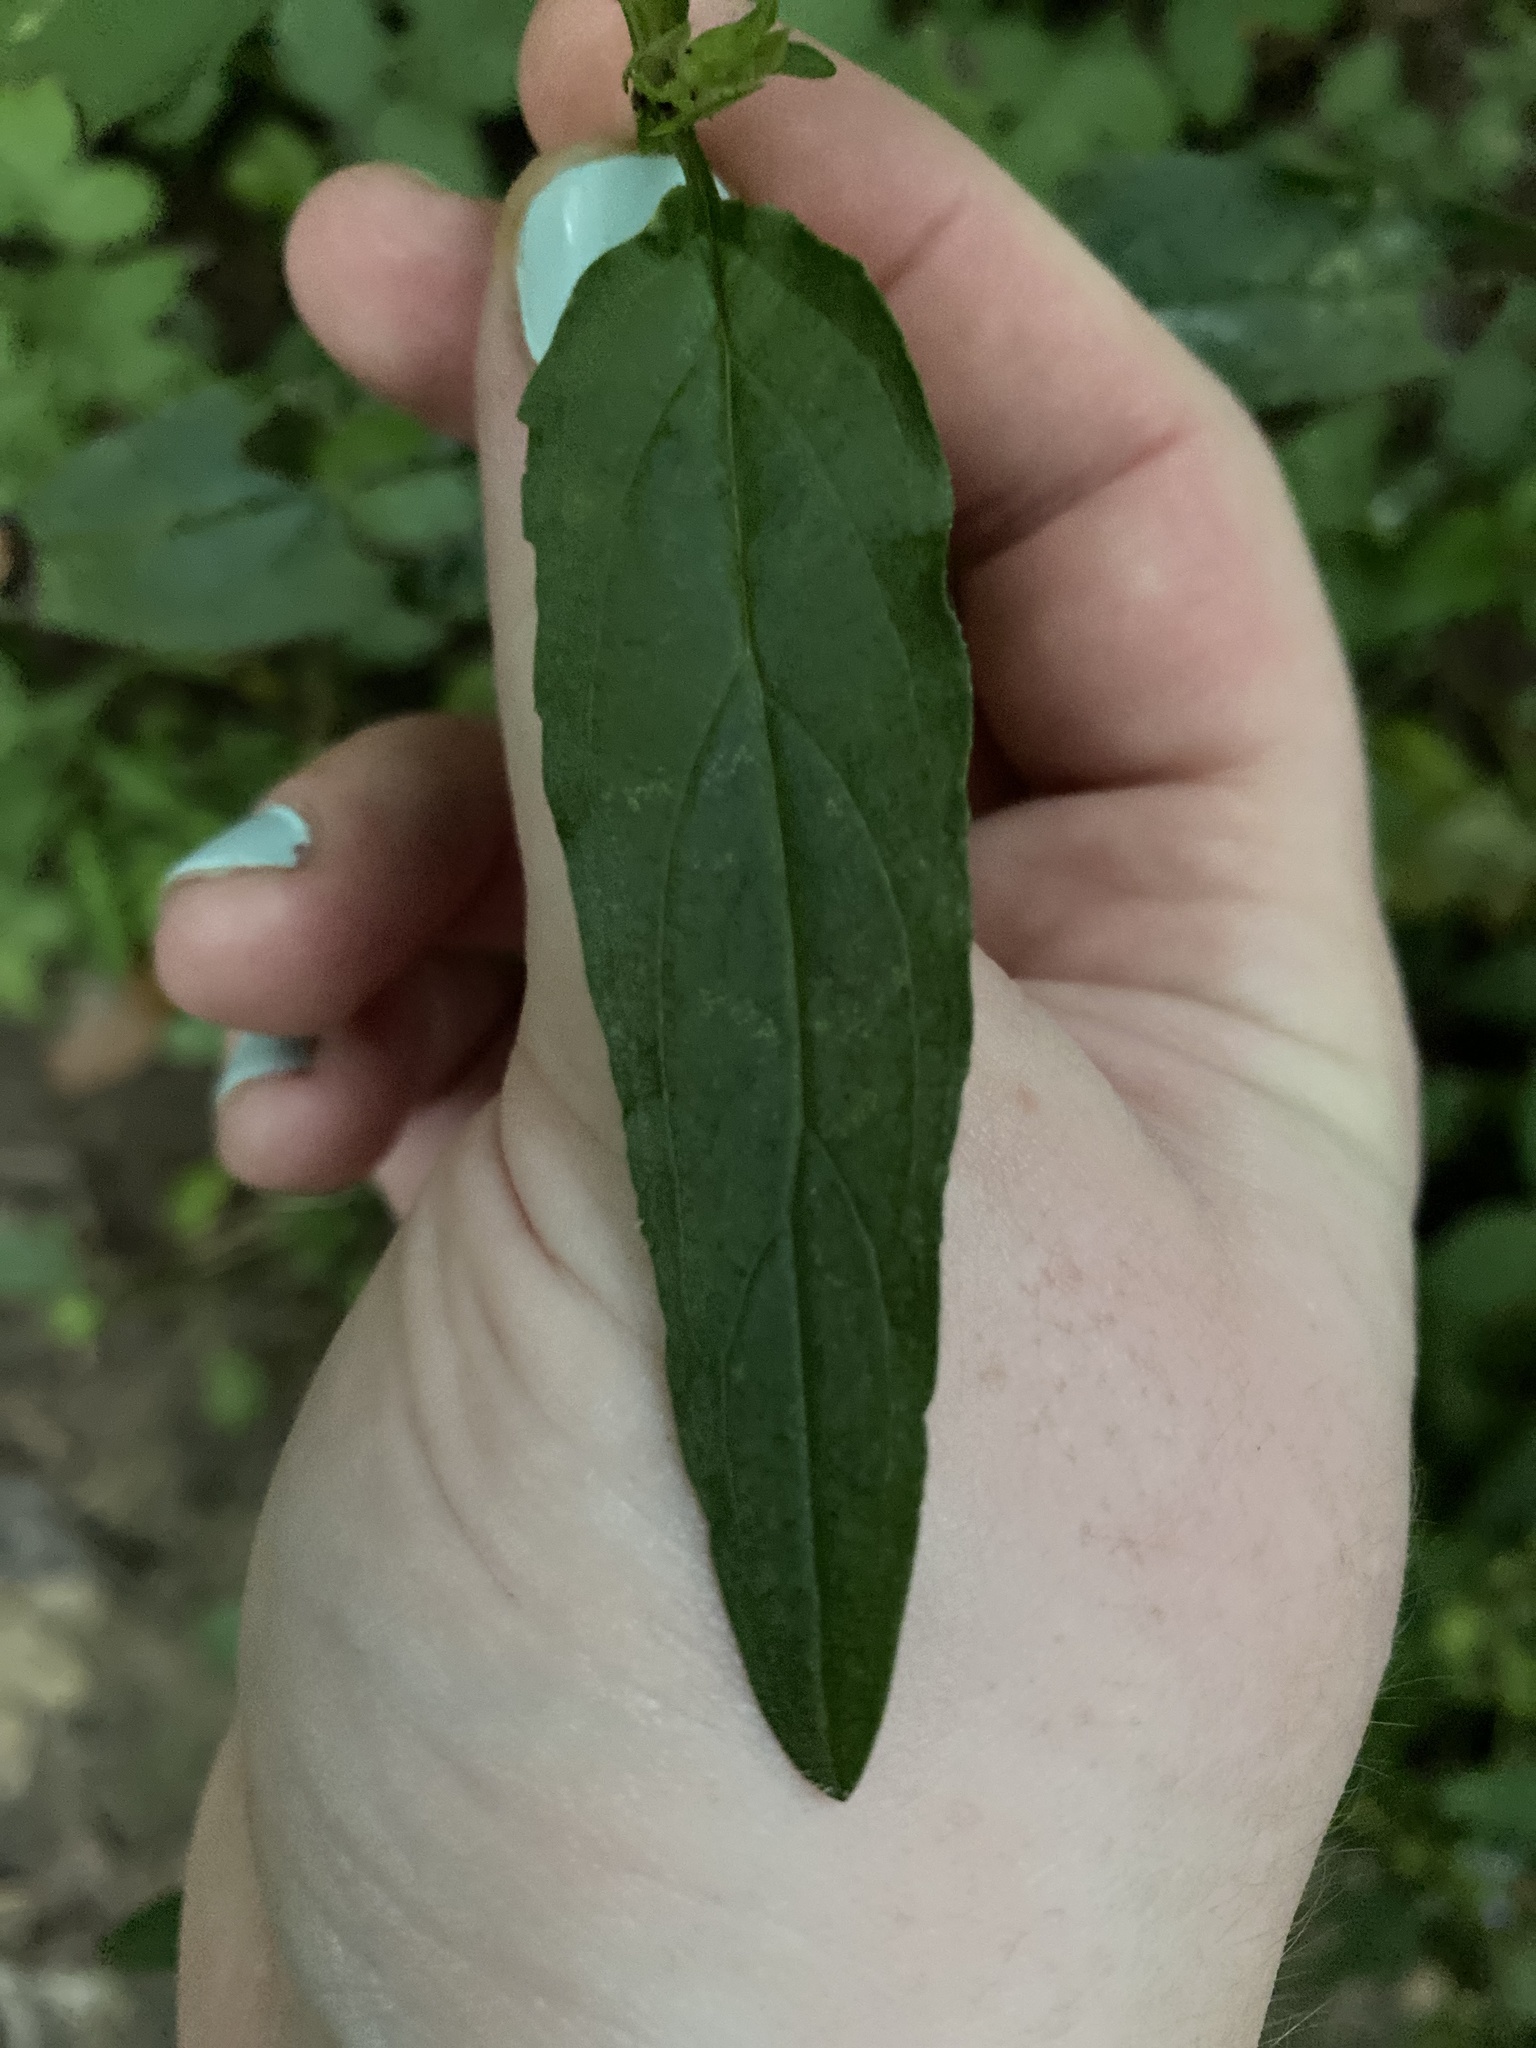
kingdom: Plantae
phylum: Tracheophyta
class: Magnoliopsida
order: Lamiales
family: Lamiaceae
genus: Prunella
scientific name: Prunella vulgaris
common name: Heal-all
